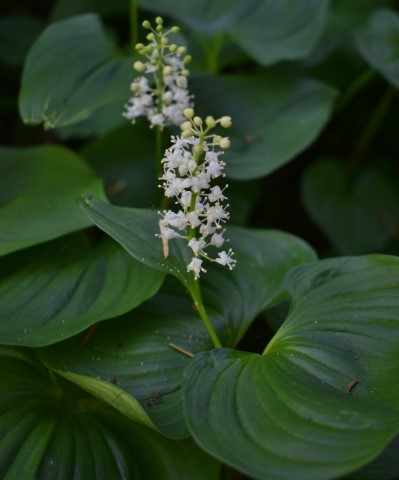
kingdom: Plantae
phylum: Tracheophyta
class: Liliopsida
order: Asparagales
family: Asparagaceae
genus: Maianthemum
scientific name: Maianthemum dilatatum
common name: False lily-of-the-valley
